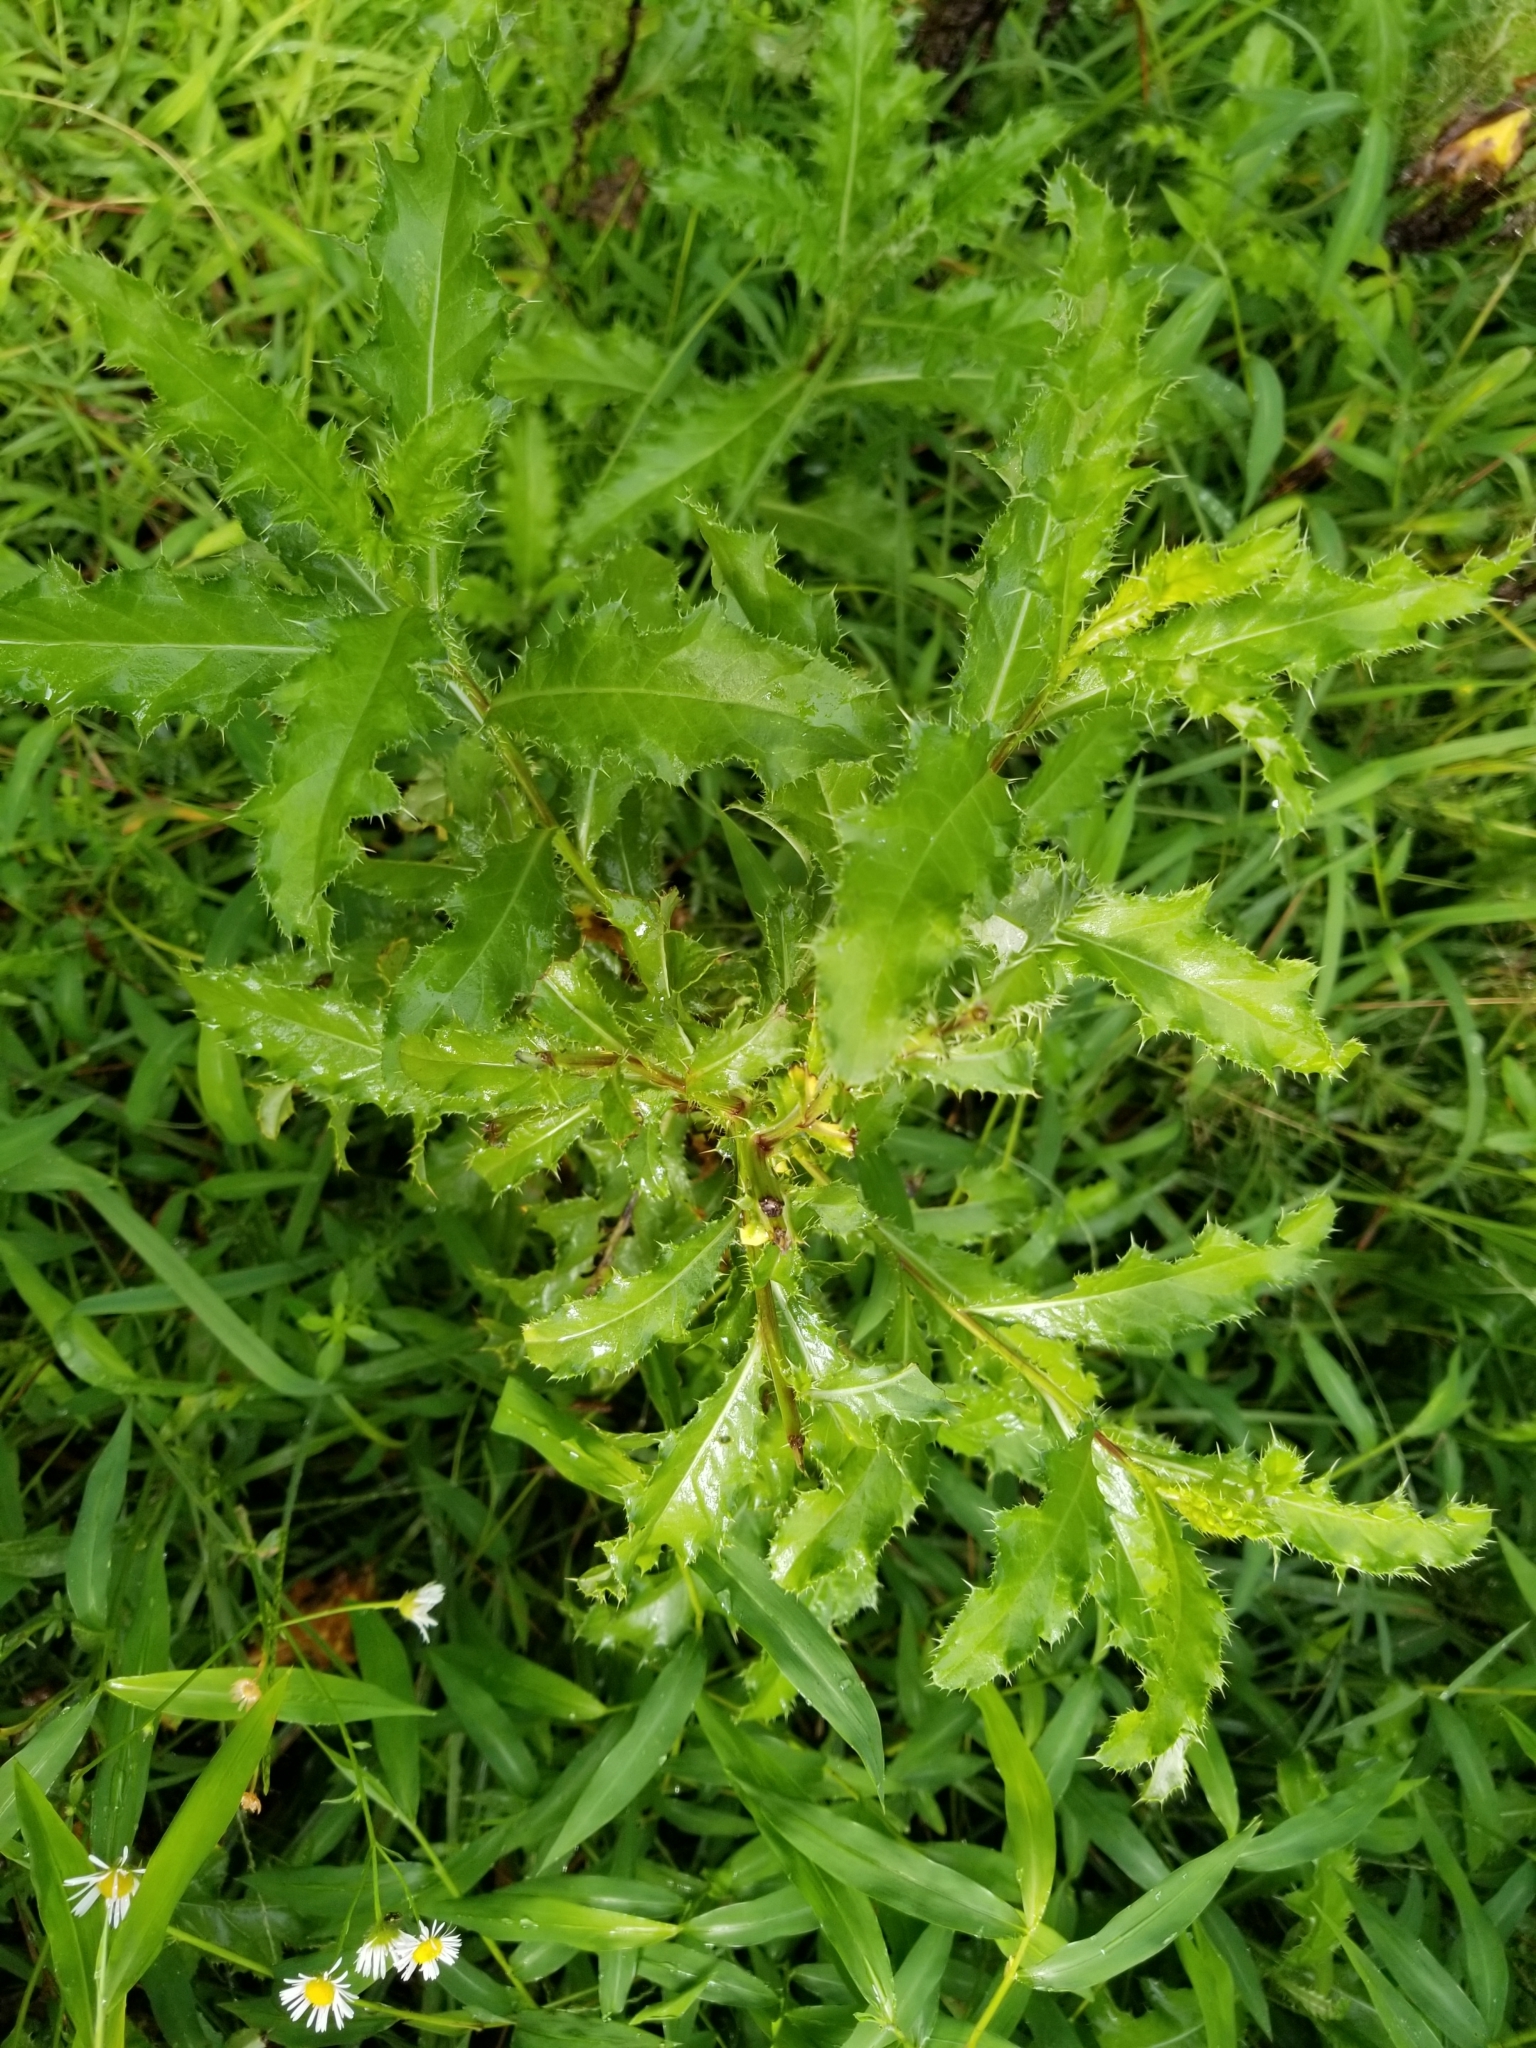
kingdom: Plantae
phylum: Tracheophyta
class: Magnoliopsida
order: Asterales
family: Asteraceae
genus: Cirsium
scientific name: Cirsium arvense
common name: Creeping thistle
